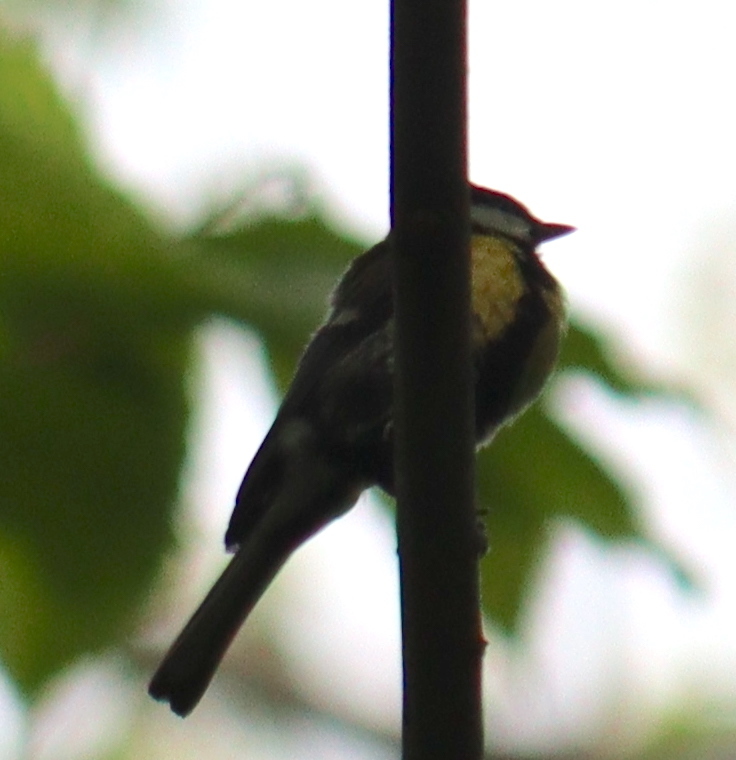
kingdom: Animalia
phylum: Chordata
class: Aves
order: Passeriformes
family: Paridae
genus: Parus
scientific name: Parus major
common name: Great tit
